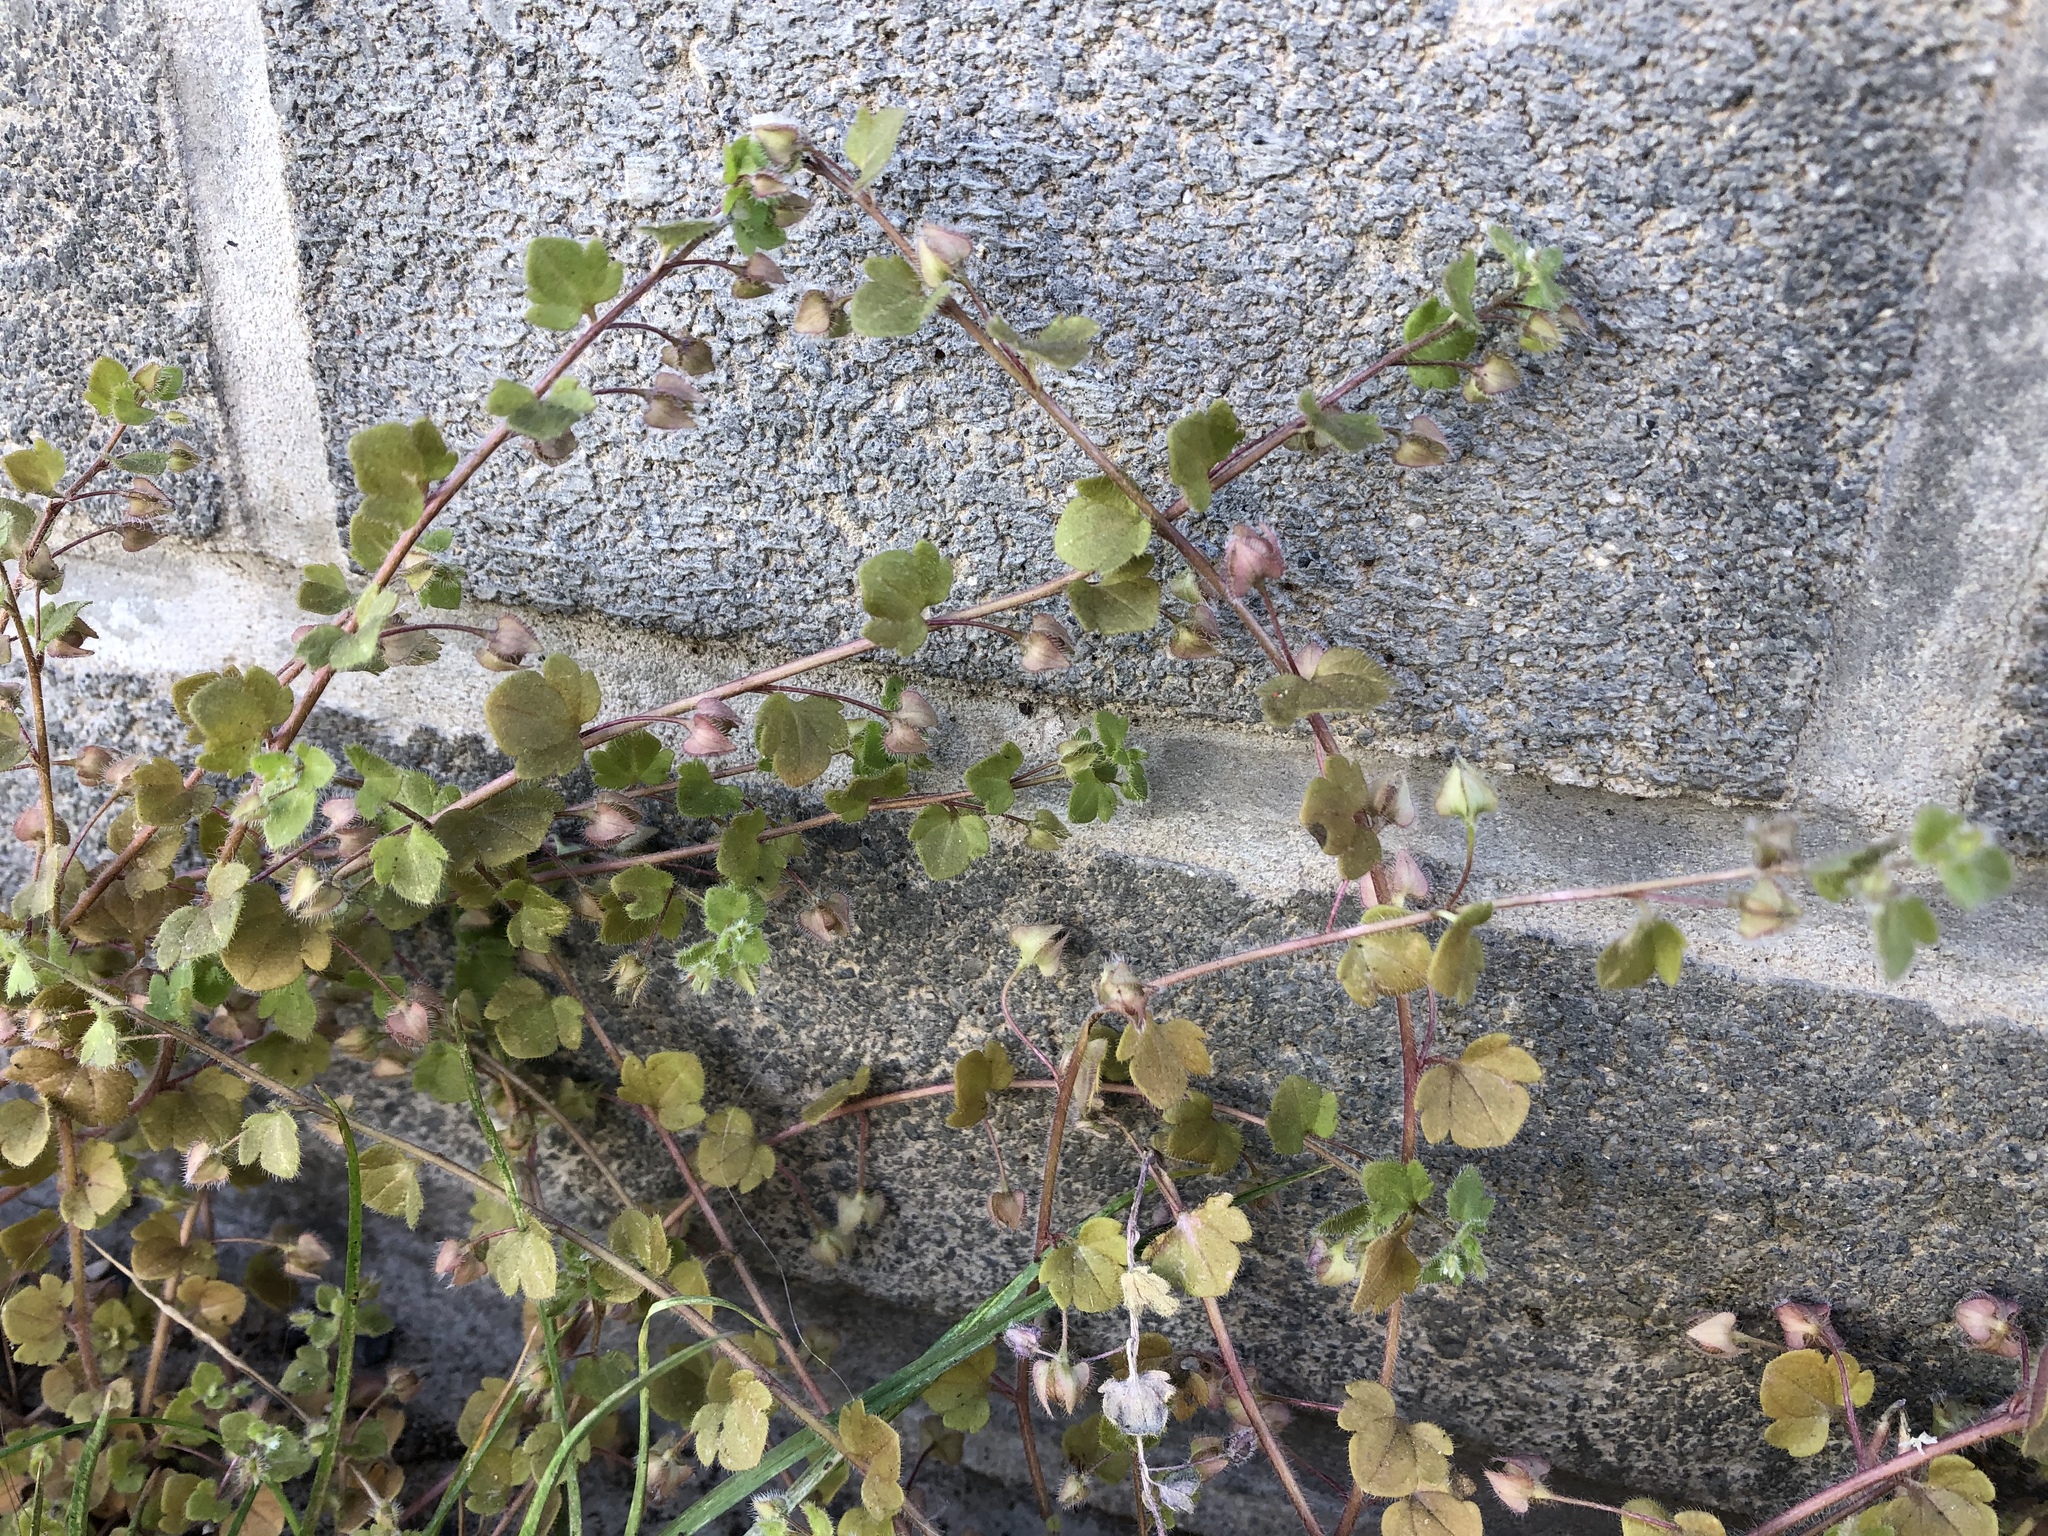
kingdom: Plantae
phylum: Tracheophyta
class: Magnoliopsida
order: Lamiales
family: Plantaginaceae
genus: Veronica
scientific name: Veronica sublobata
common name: False ivy-leaved speedwell
